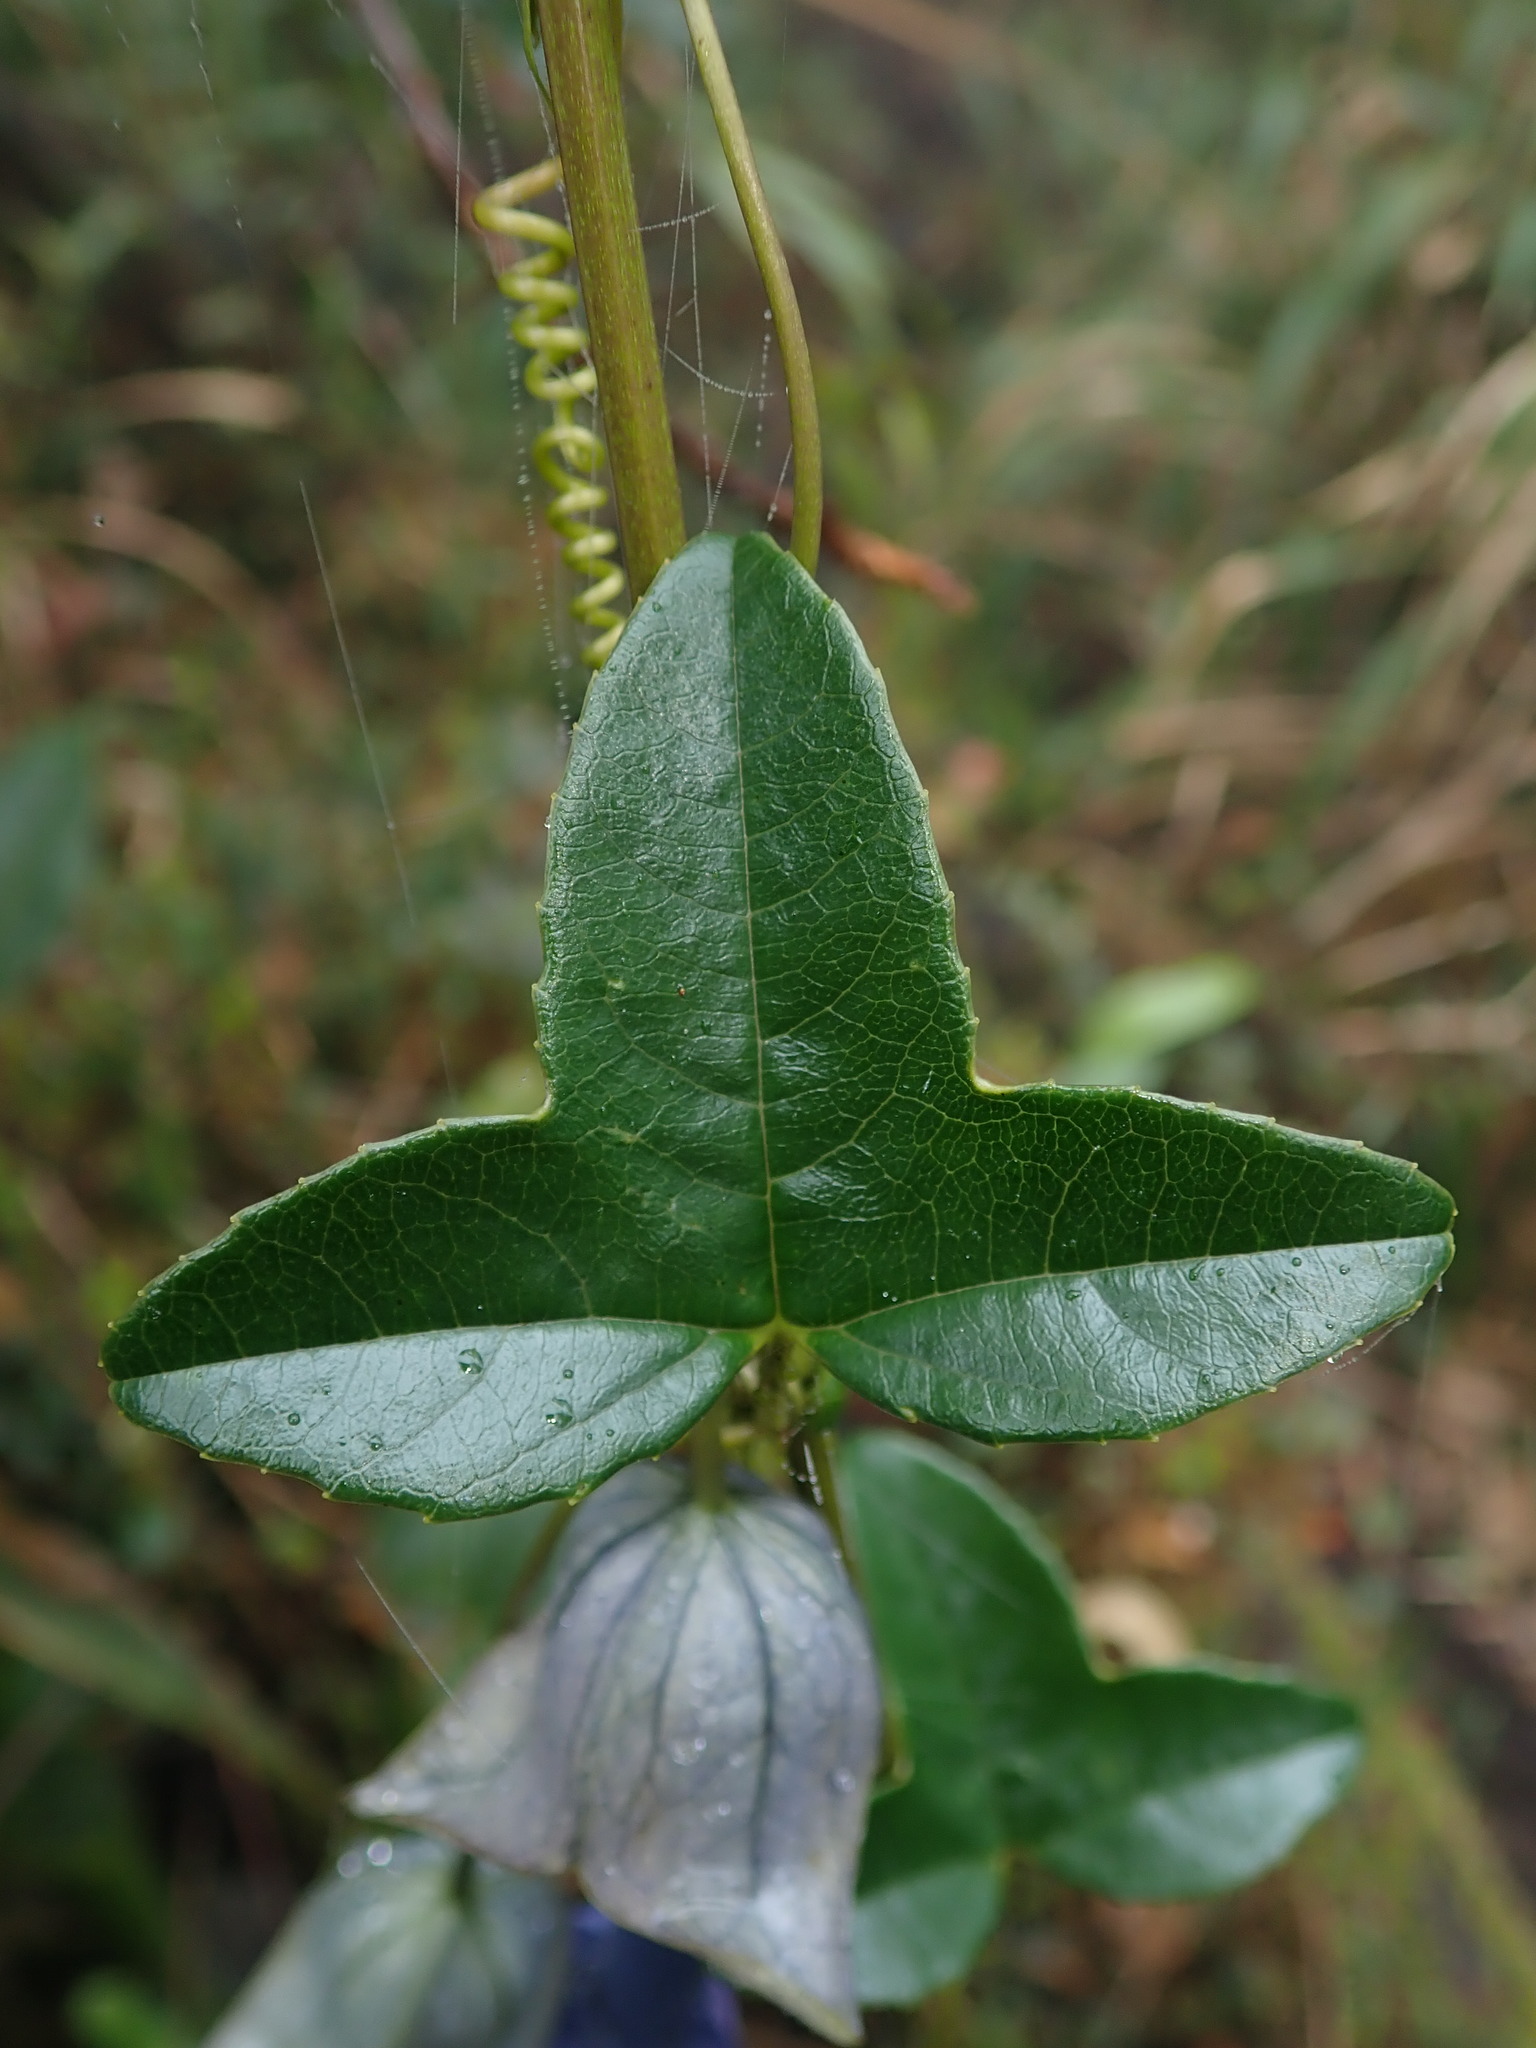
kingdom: Plantae
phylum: Tracheophyta
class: Magnoliopsida
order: Malpighiales
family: Passifloraceae
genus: Passiflora
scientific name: Passiflora cumbalensis
